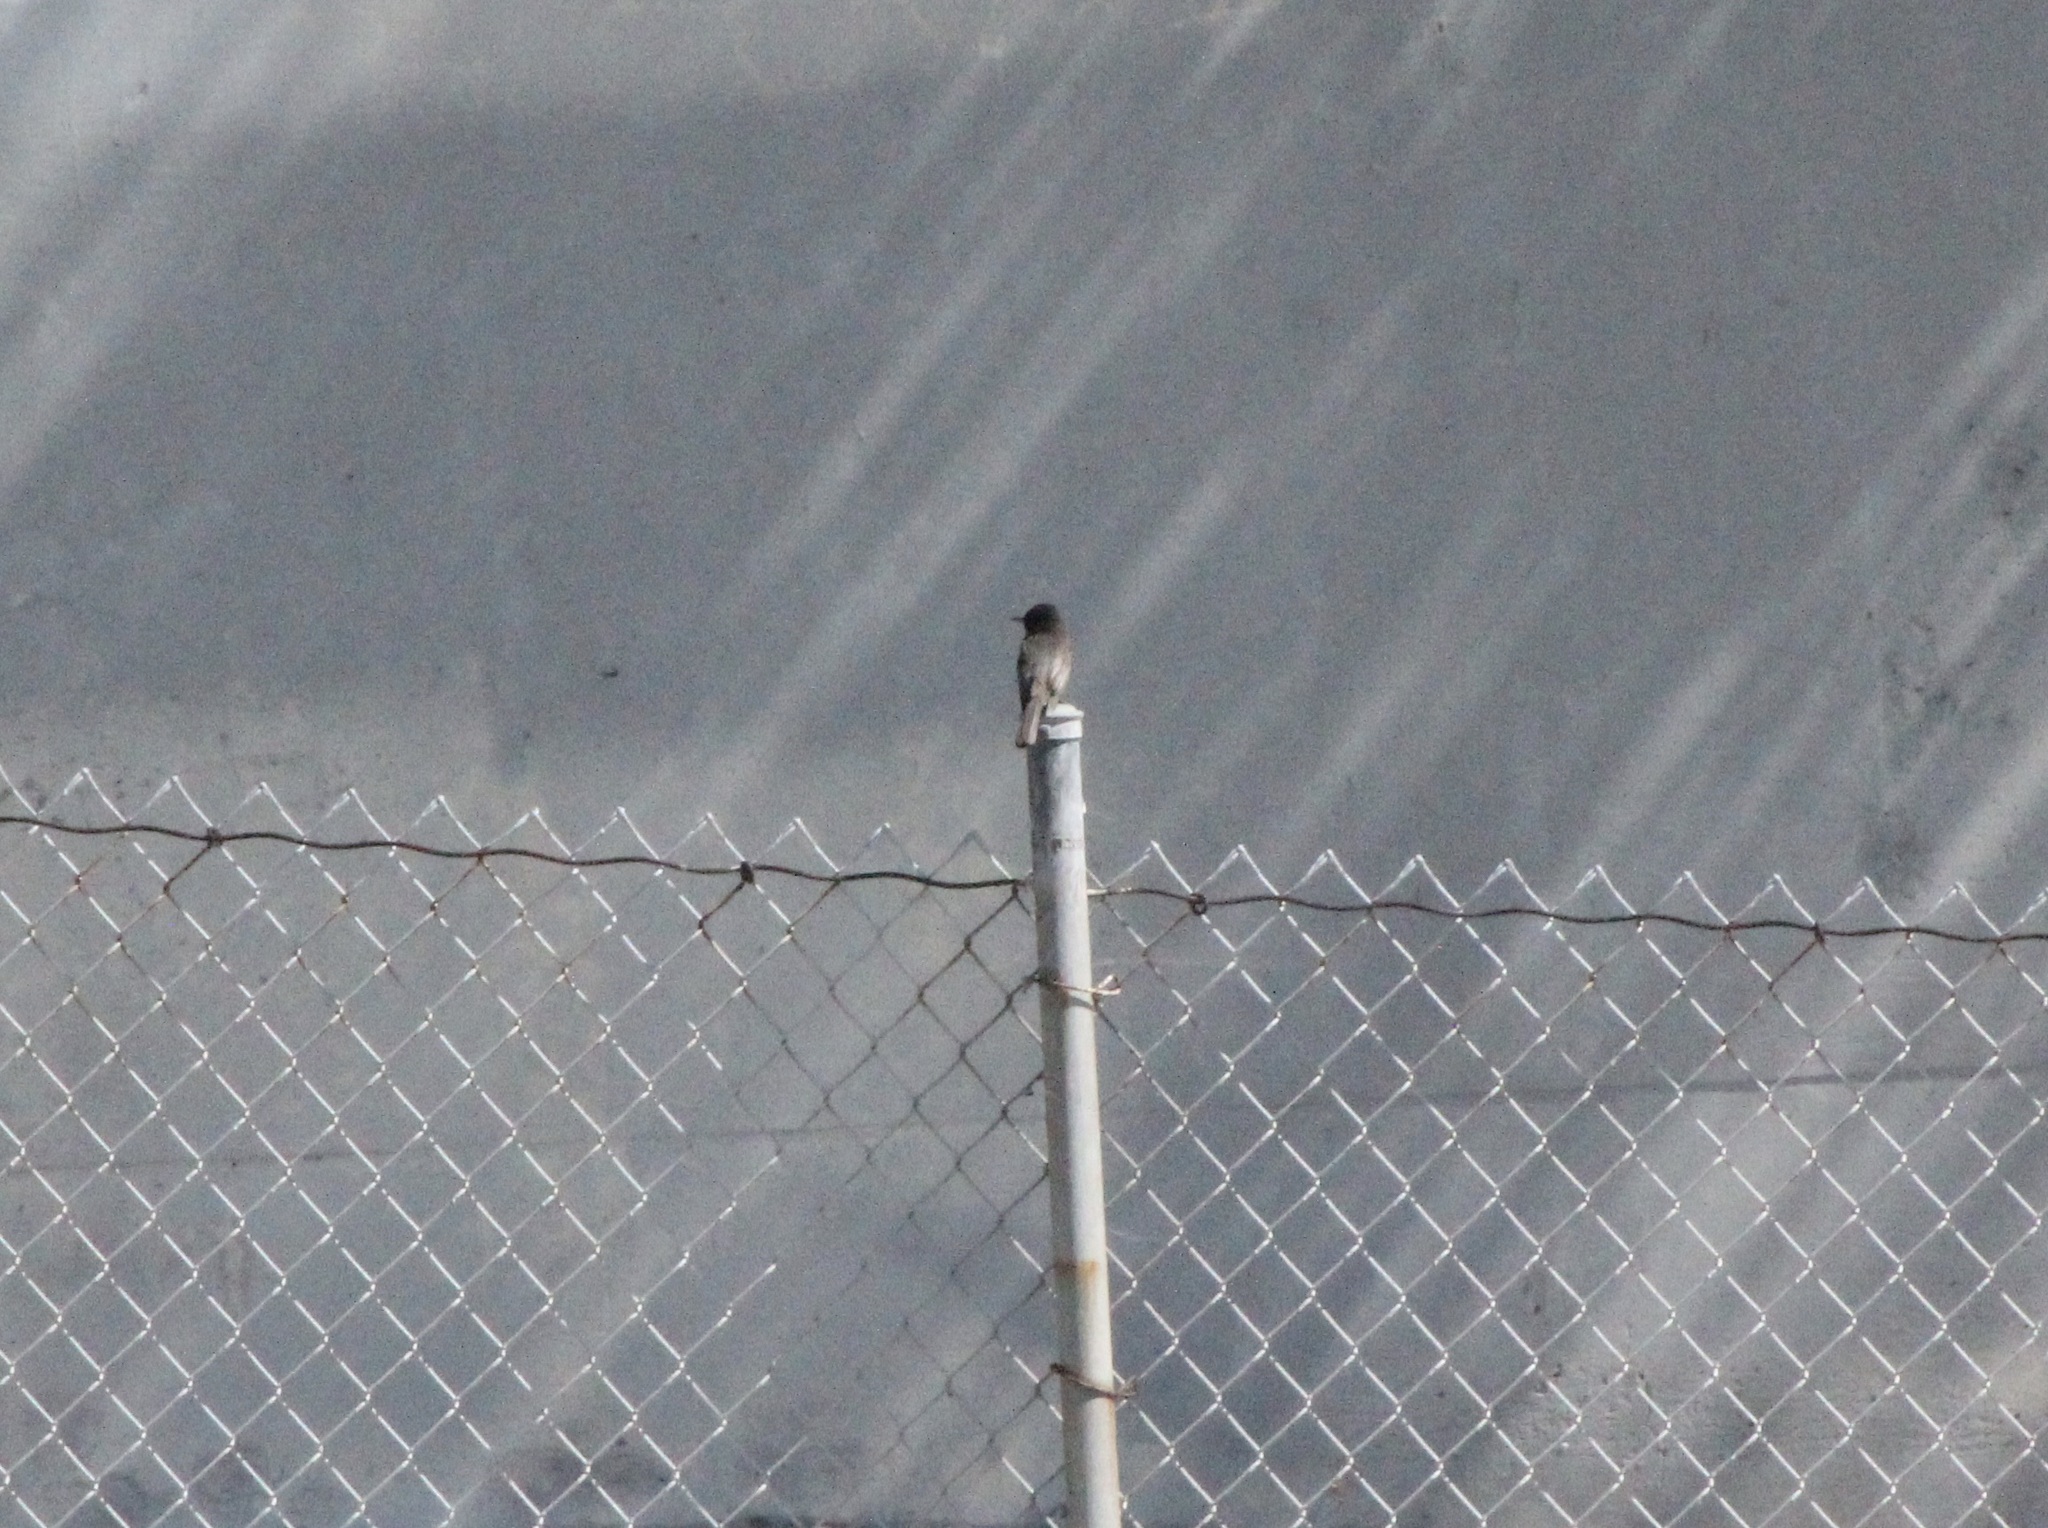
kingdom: Animalia
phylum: Chordata
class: Aves
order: Passeriformes
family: Tyrannidae
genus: Sayornis
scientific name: Sayornis nigricans
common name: Black phoebe
